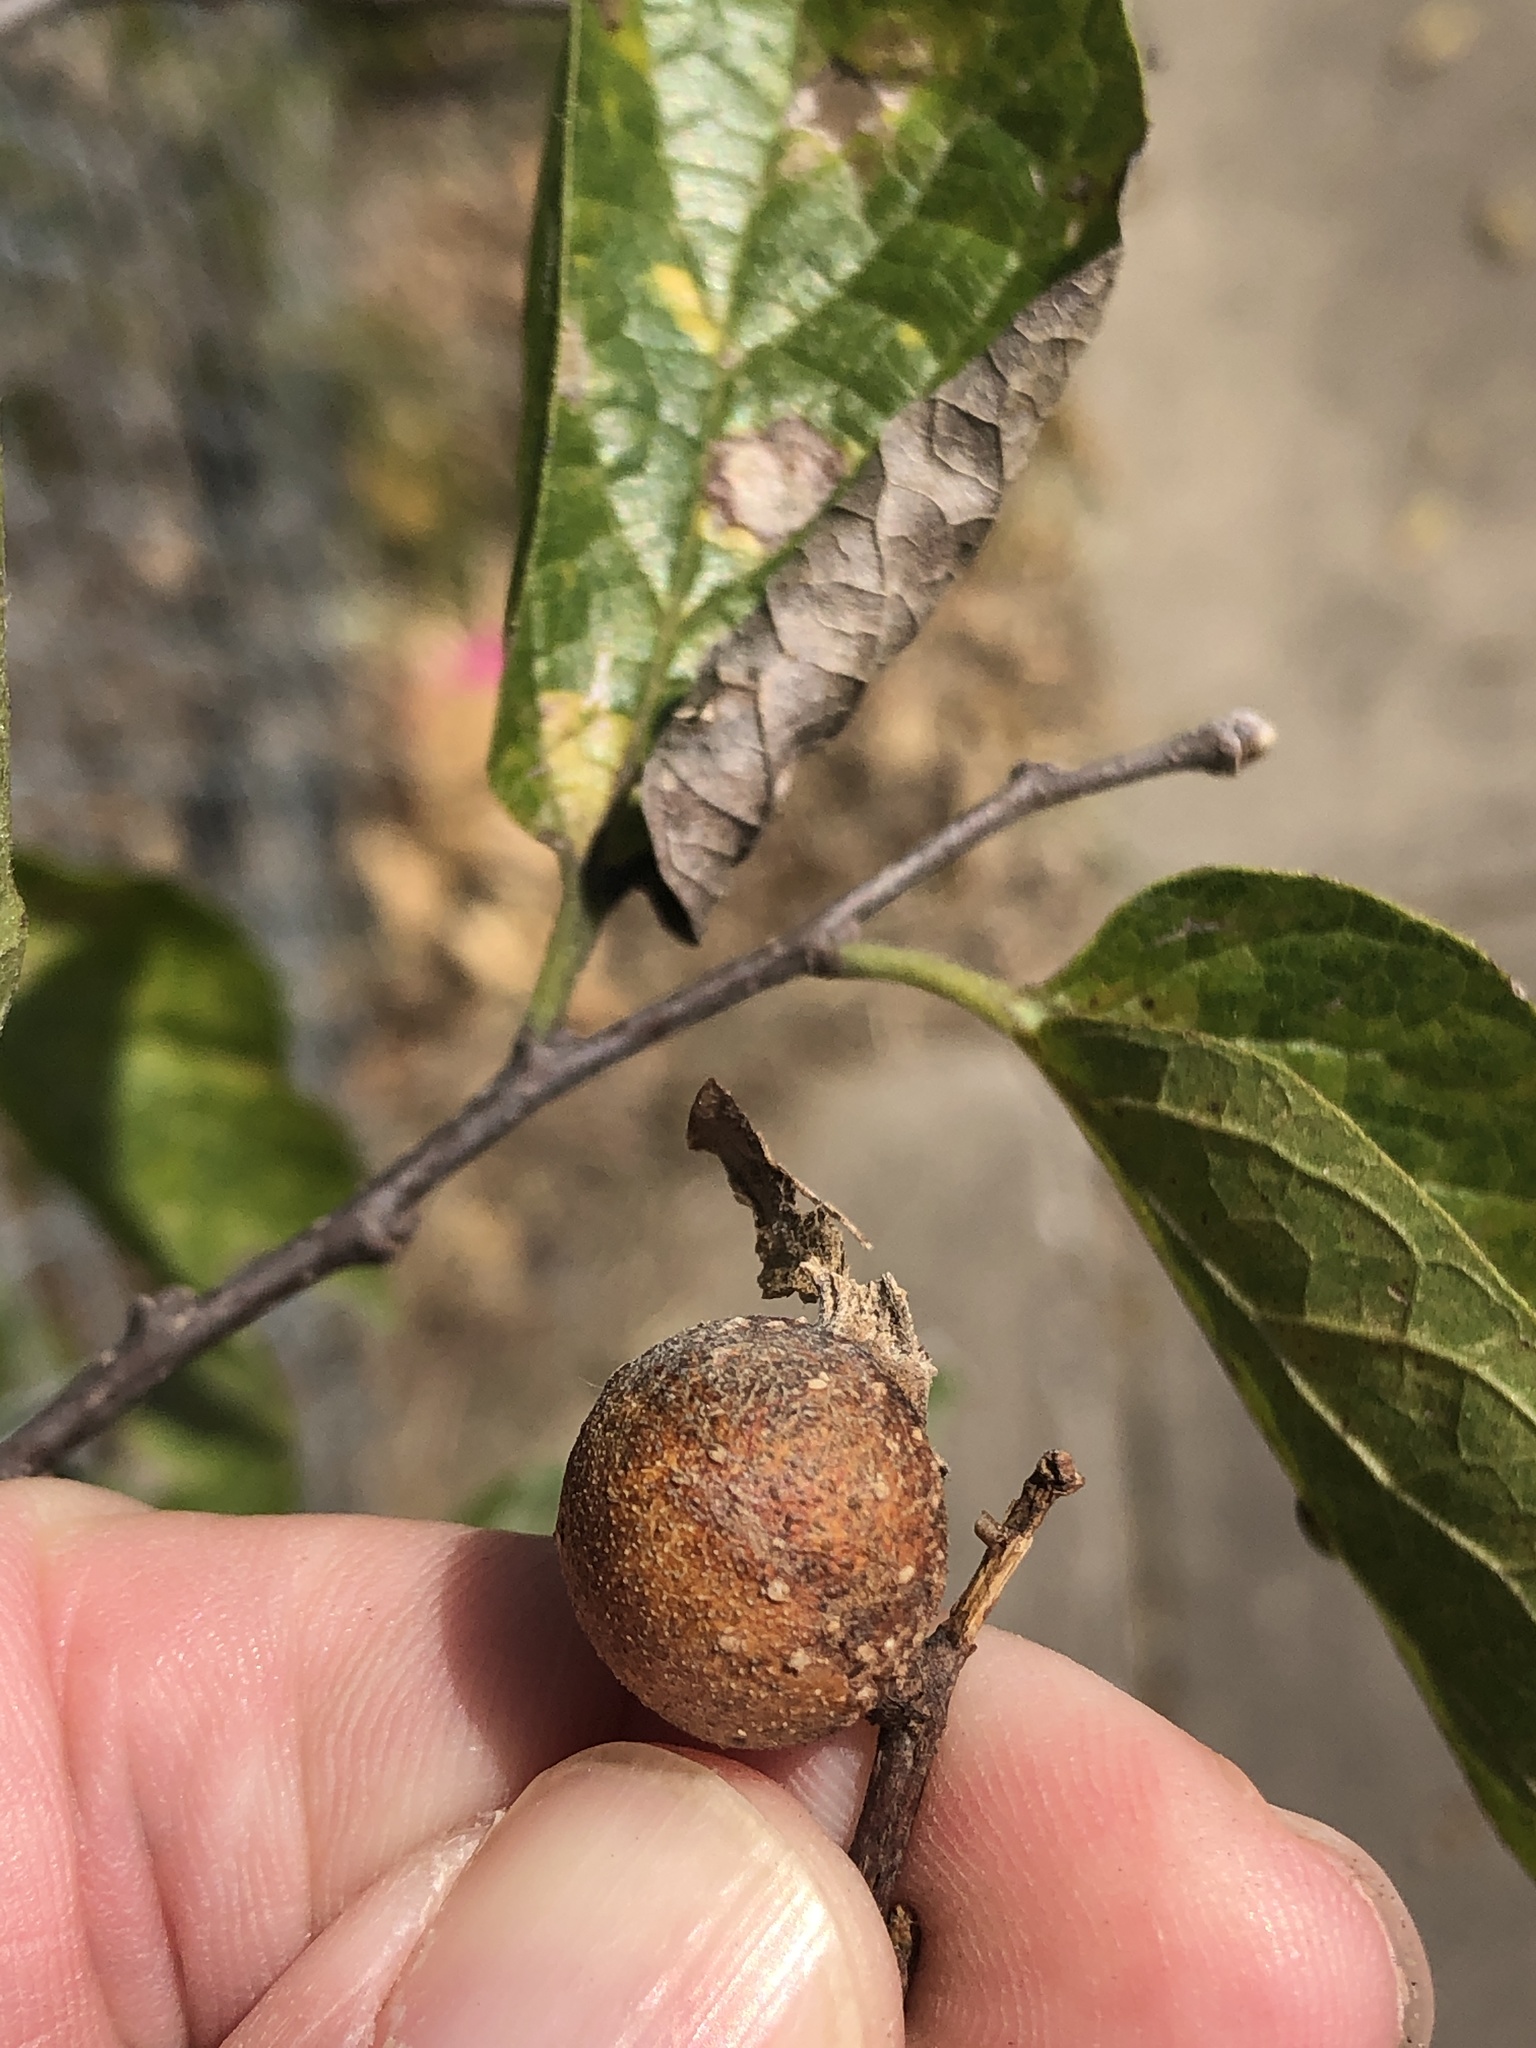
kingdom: Animalia
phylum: Arthropoda
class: Insecta
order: Hemiptera
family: Aphalaridae
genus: Pachypsylla
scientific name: Pachypsylla venusta
